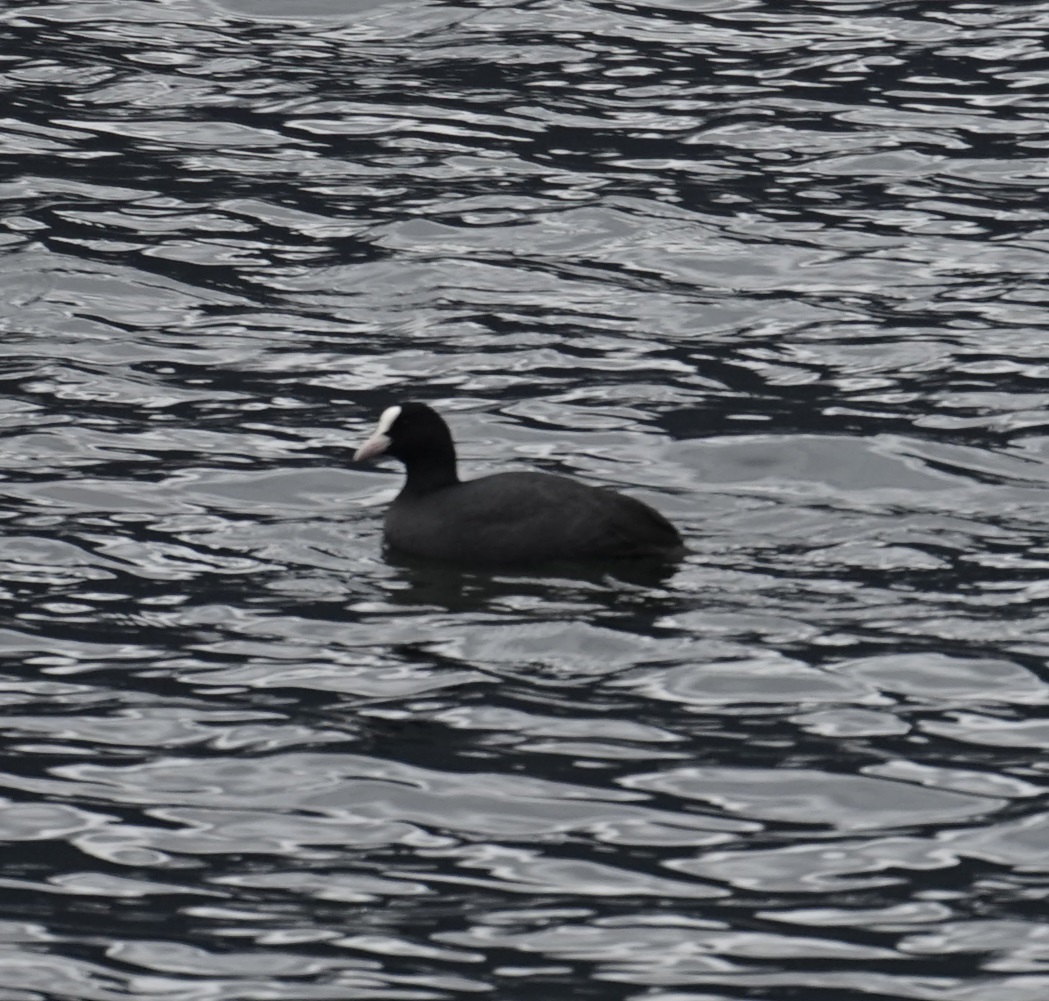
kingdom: Animalia
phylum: Chordata
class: Aves
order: Gruiformes
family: Rallidae
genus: Fulica
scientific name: Fulica atra
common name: Eurasian coot
